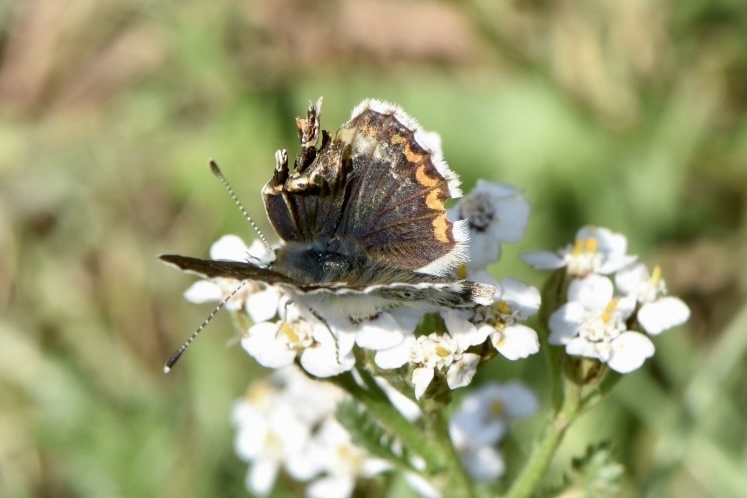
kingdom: Animalia
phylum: Arthropoda
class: Insecta
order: Lepidoptera
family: Lycaenidae
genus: Aricia
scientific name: Aricia agestis
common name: Brown argus
